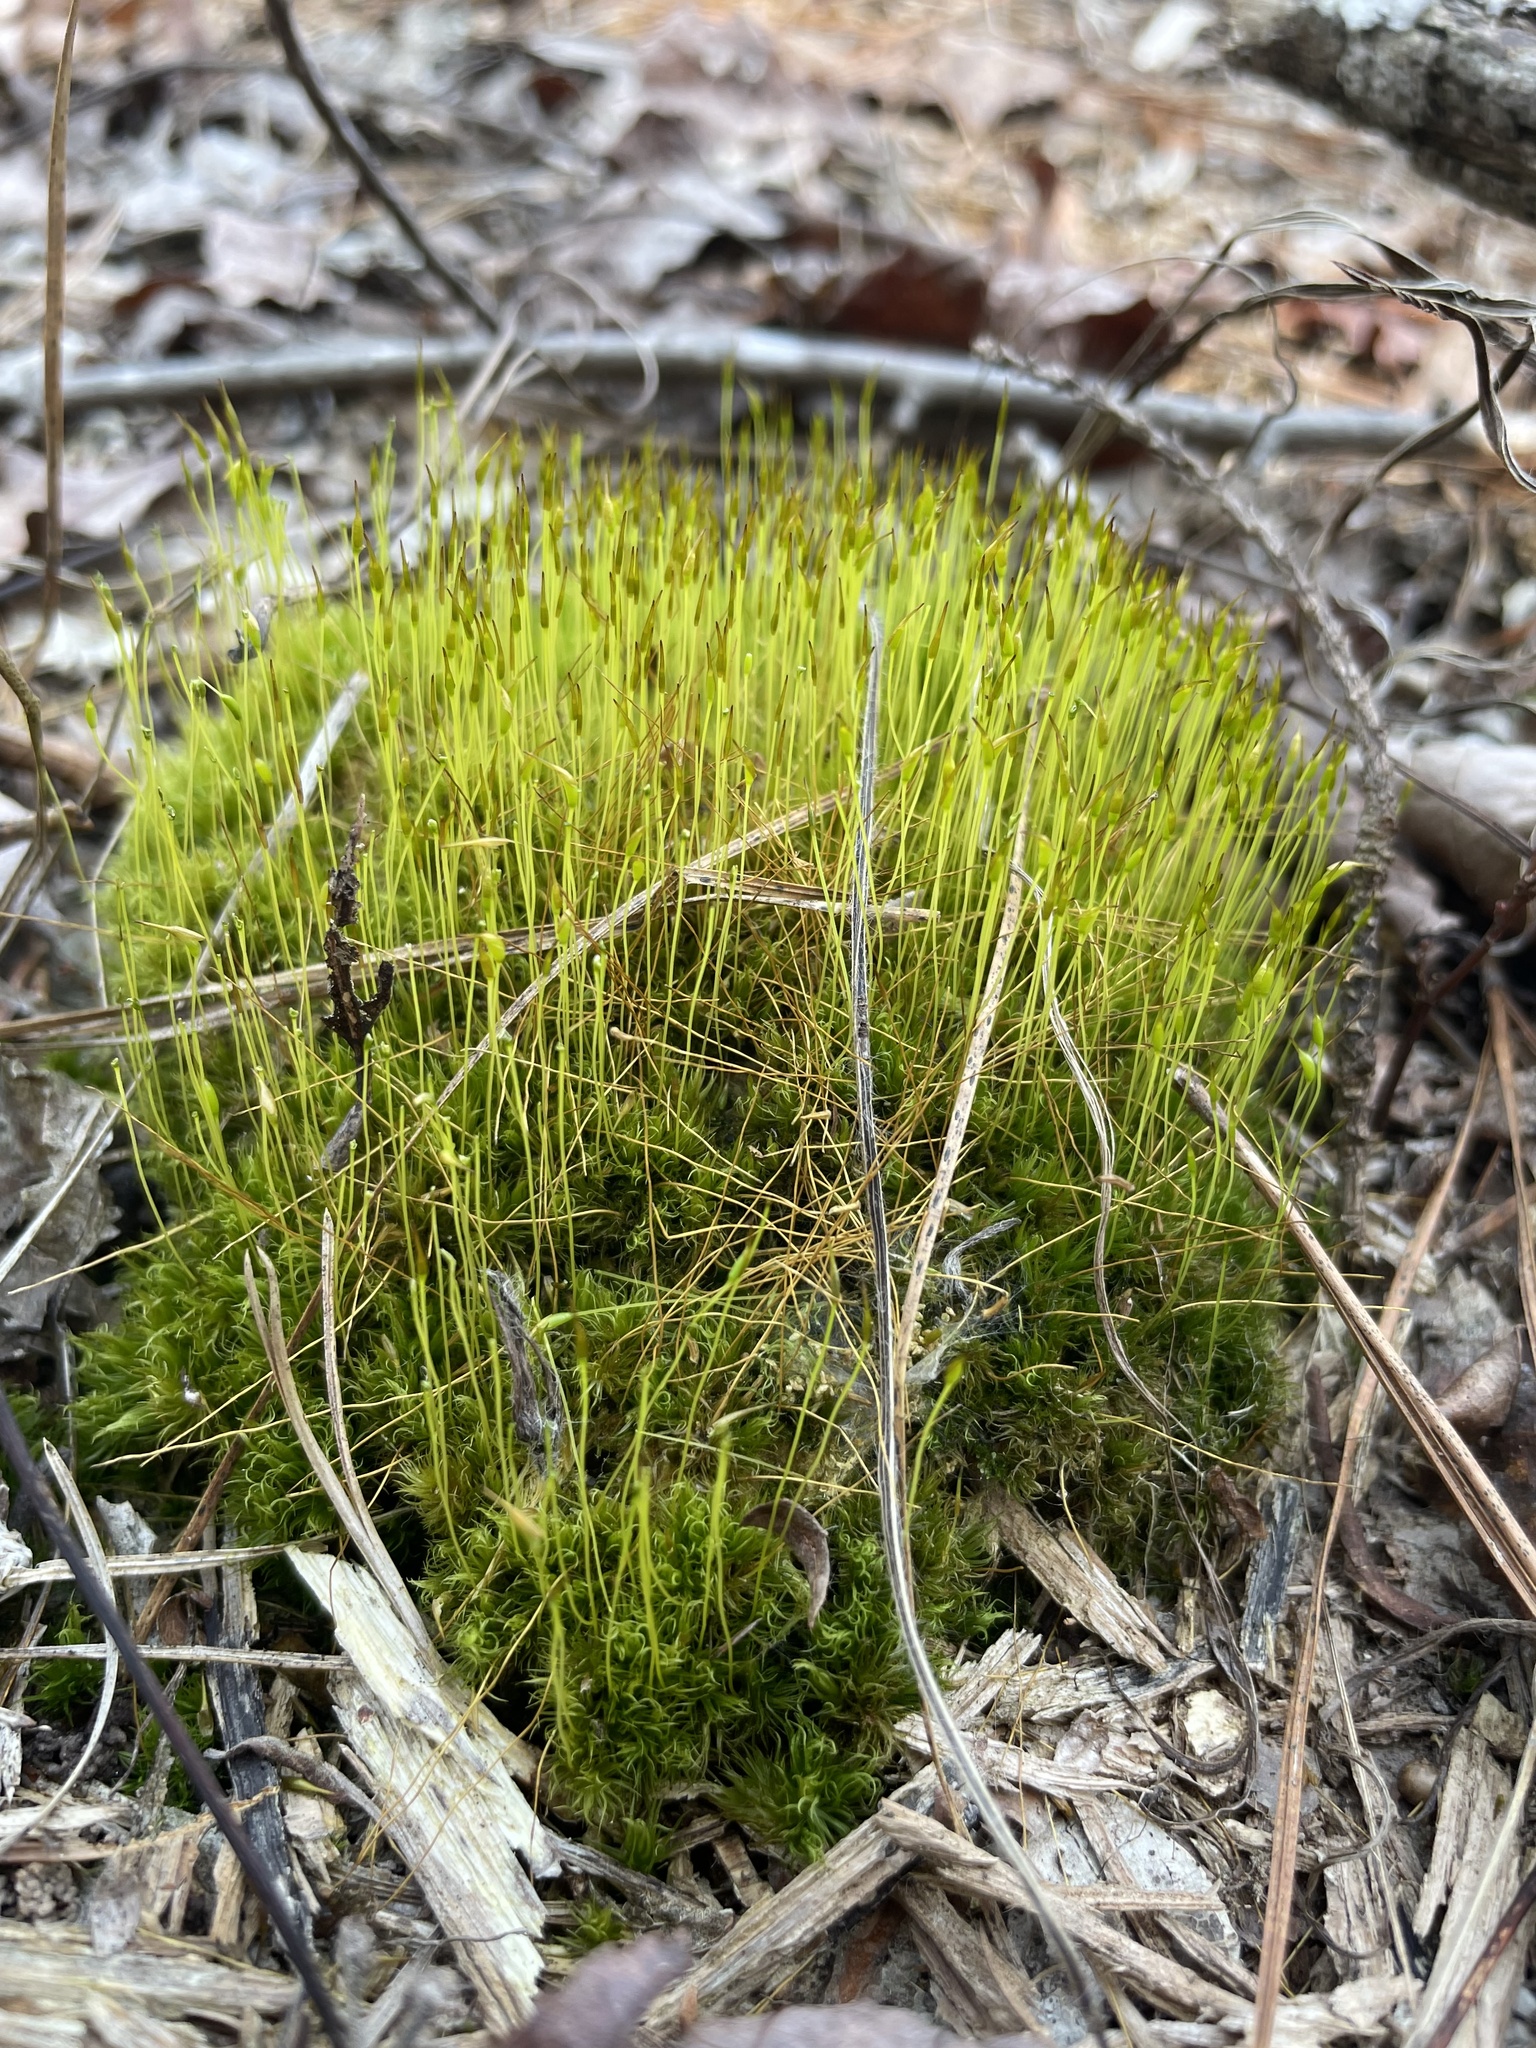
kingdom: Plantae
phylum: Bryophyta
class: Bryopsida
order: Dicranales
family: Ditrichaceae
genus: Ditrichum
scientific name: Ditrichum pallidum
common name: Pale cow-hair moss
